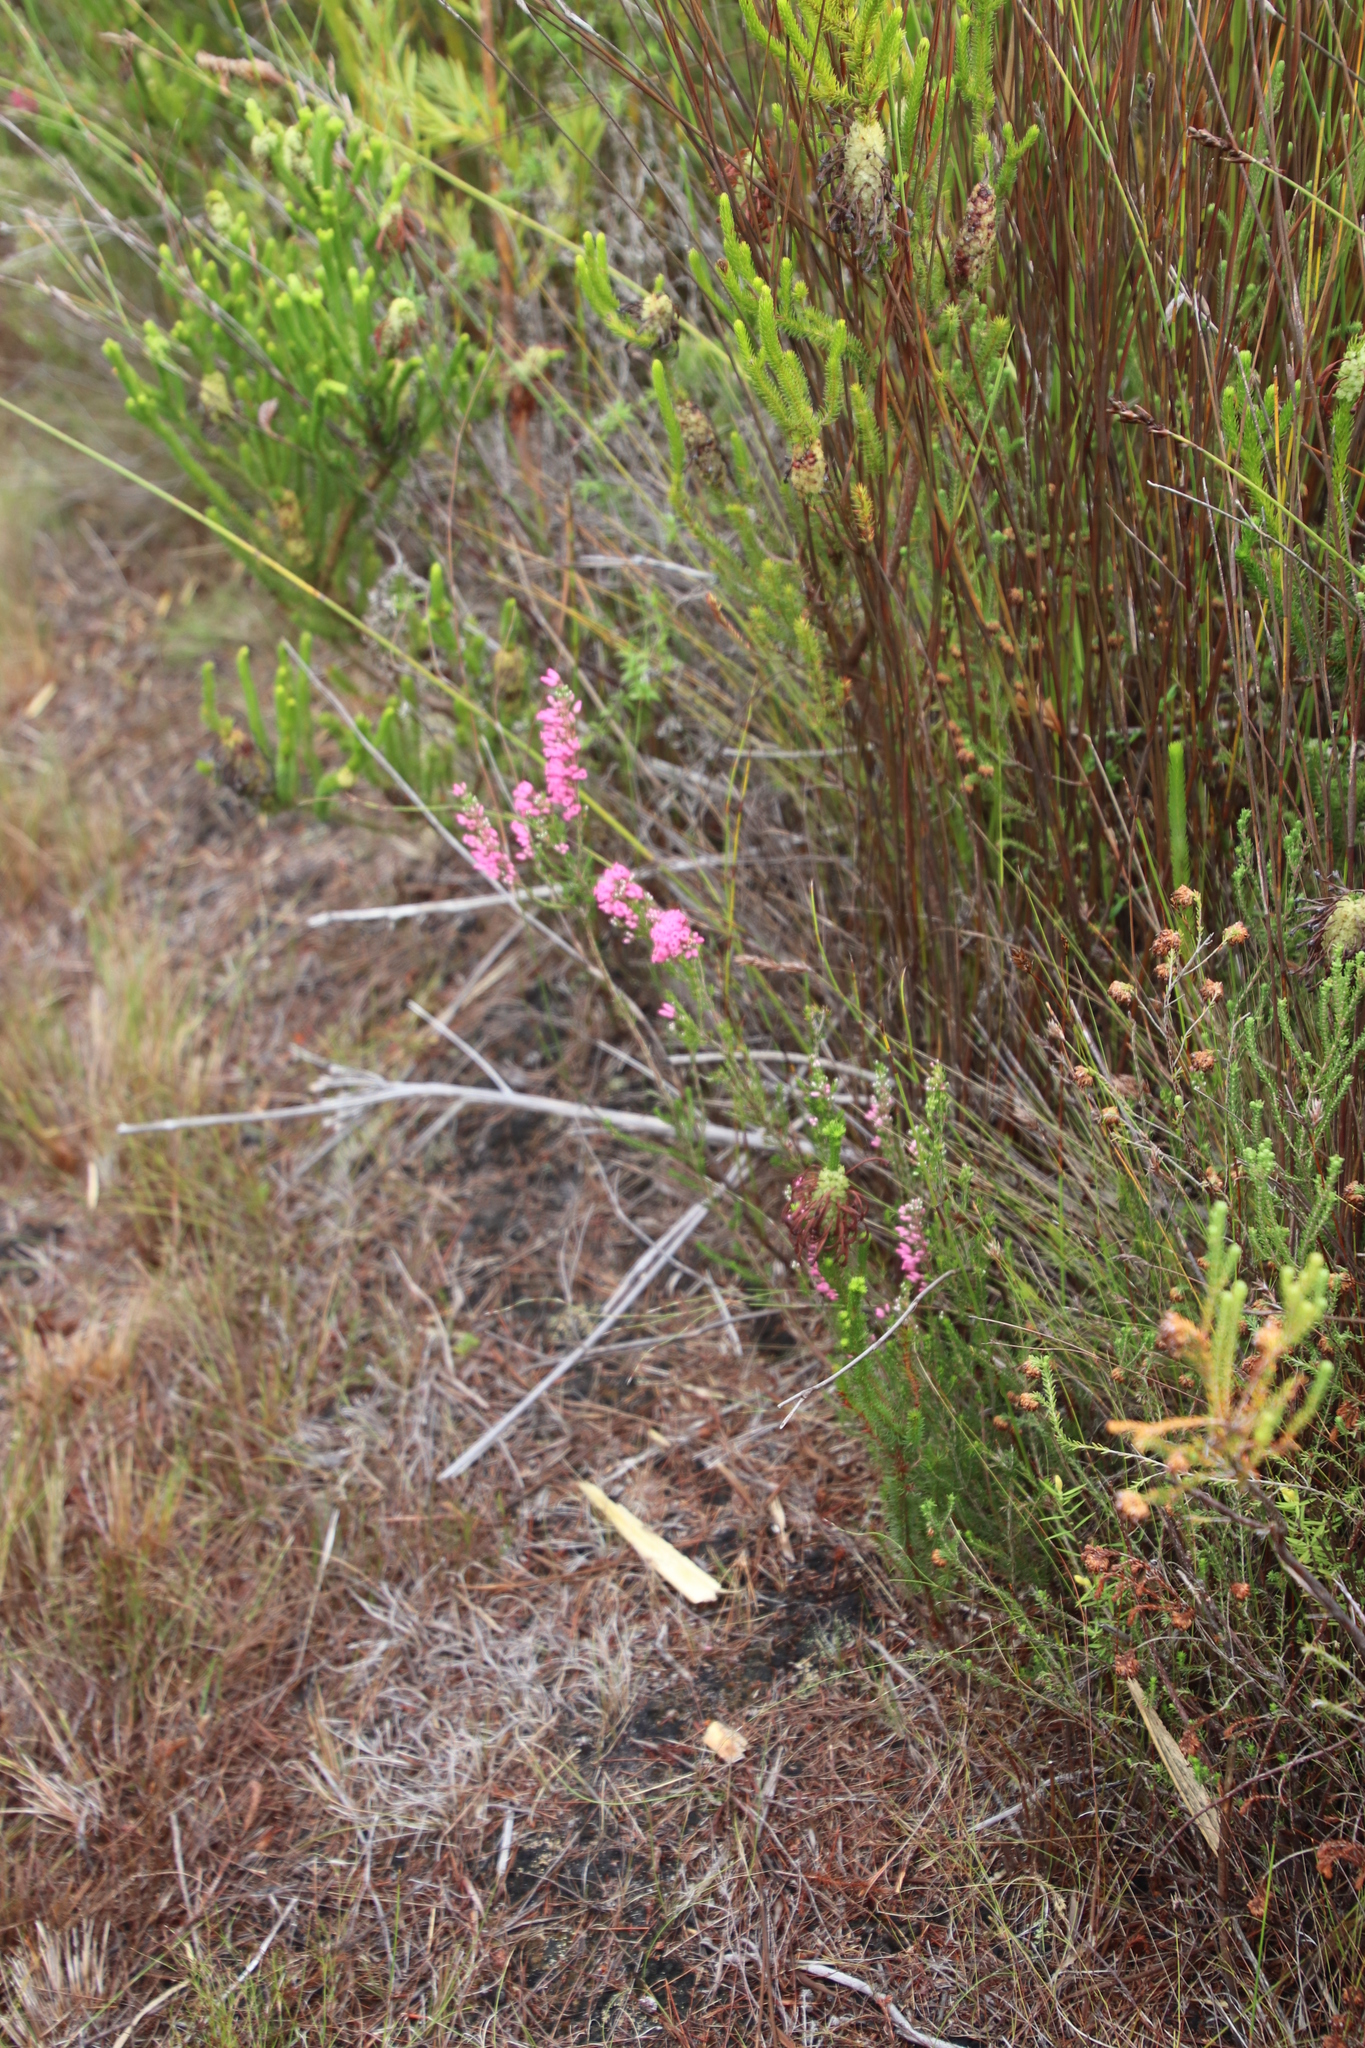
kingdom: Plantae
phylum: Tracheophyta
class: Magnoliopsida
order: Ericales
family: Ericaceae
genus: Erica
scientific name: Erica tenella
